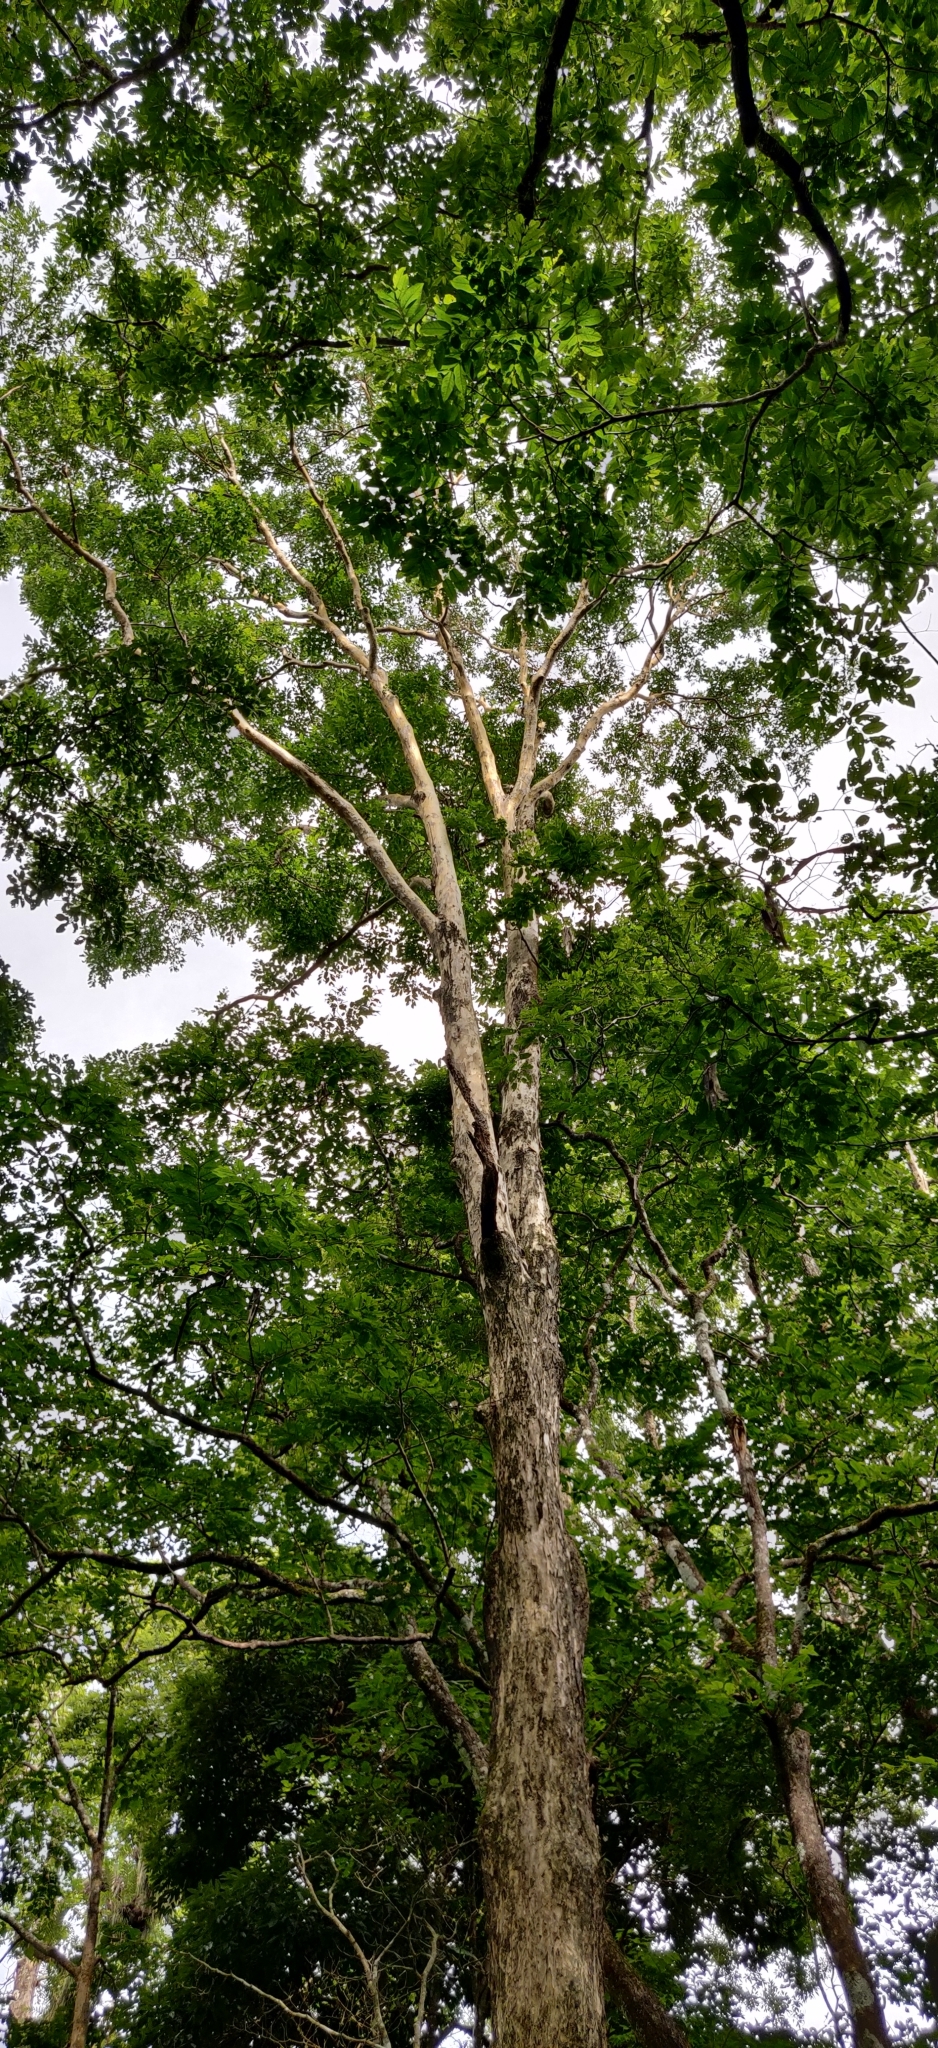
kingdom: Plantae
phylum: Tracheophyta
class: Magnoliopsida
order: Myrtales
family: Lythraceae
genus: Lagerstroemia
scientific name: Lagerstroemia microcarpa
